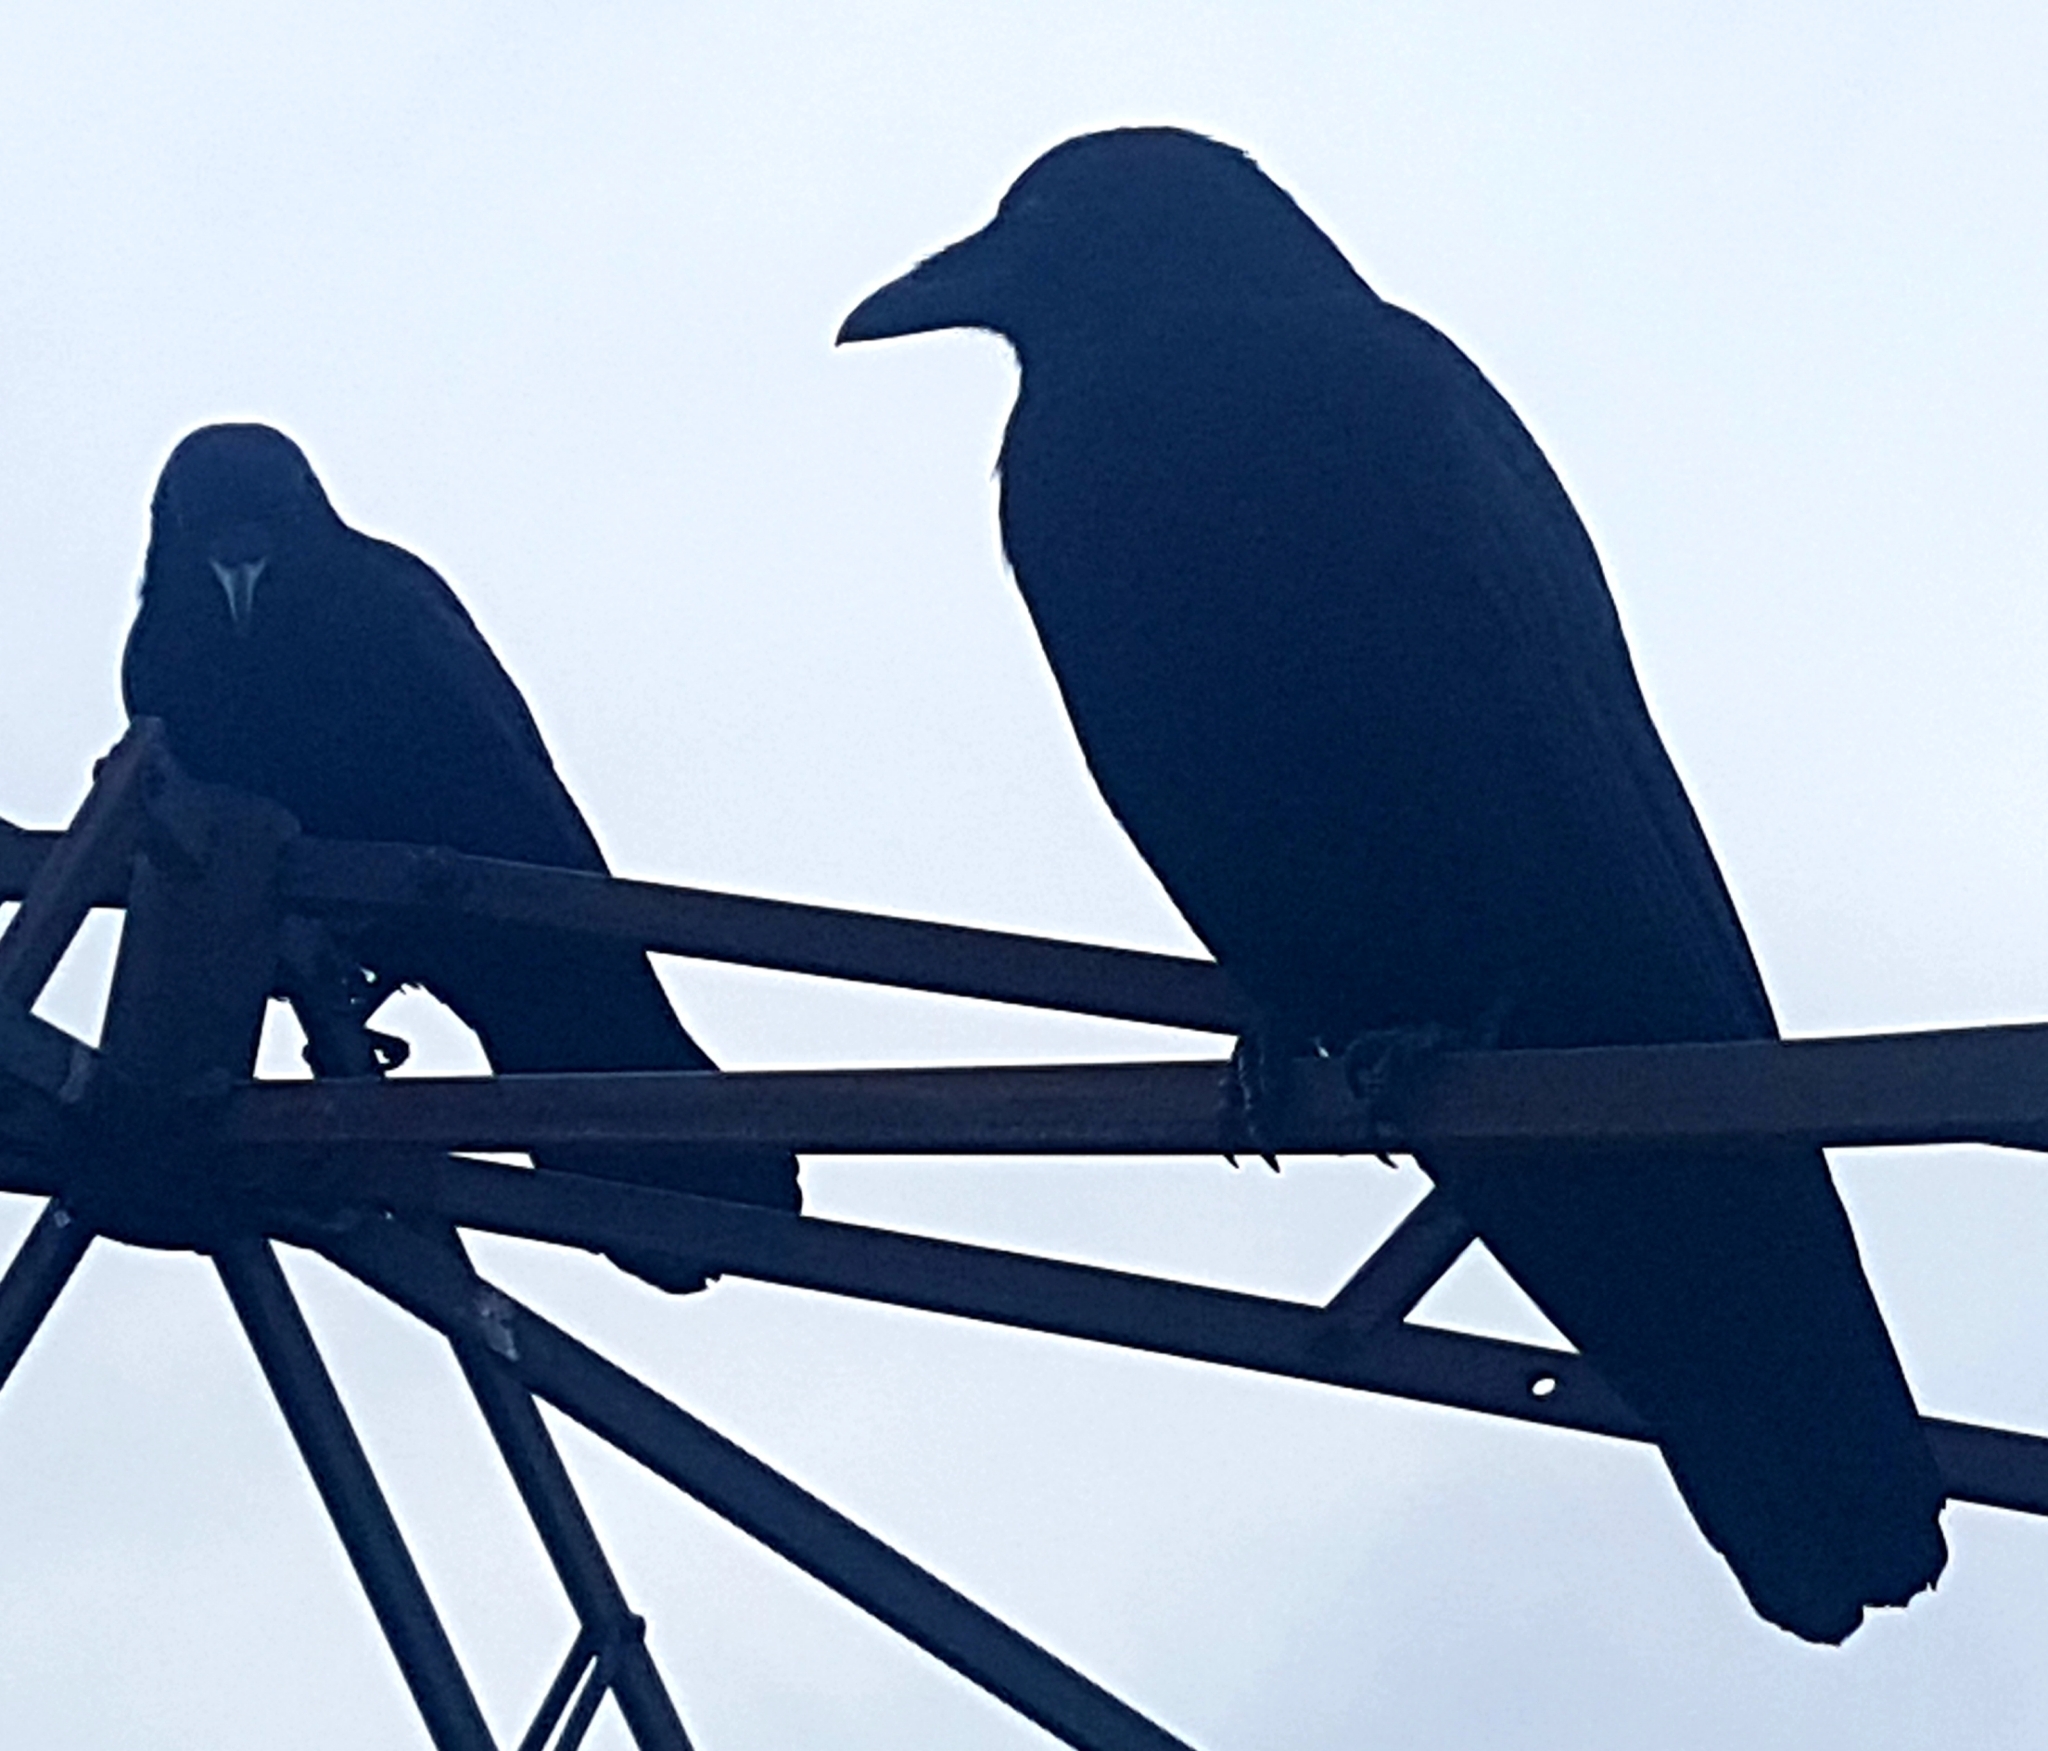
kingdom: Animalia
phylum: Chordata
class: Aves
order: Passeriformes
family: Corvidae
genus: Corvus
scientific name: Corvus brachyrhynchos
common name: American crow
